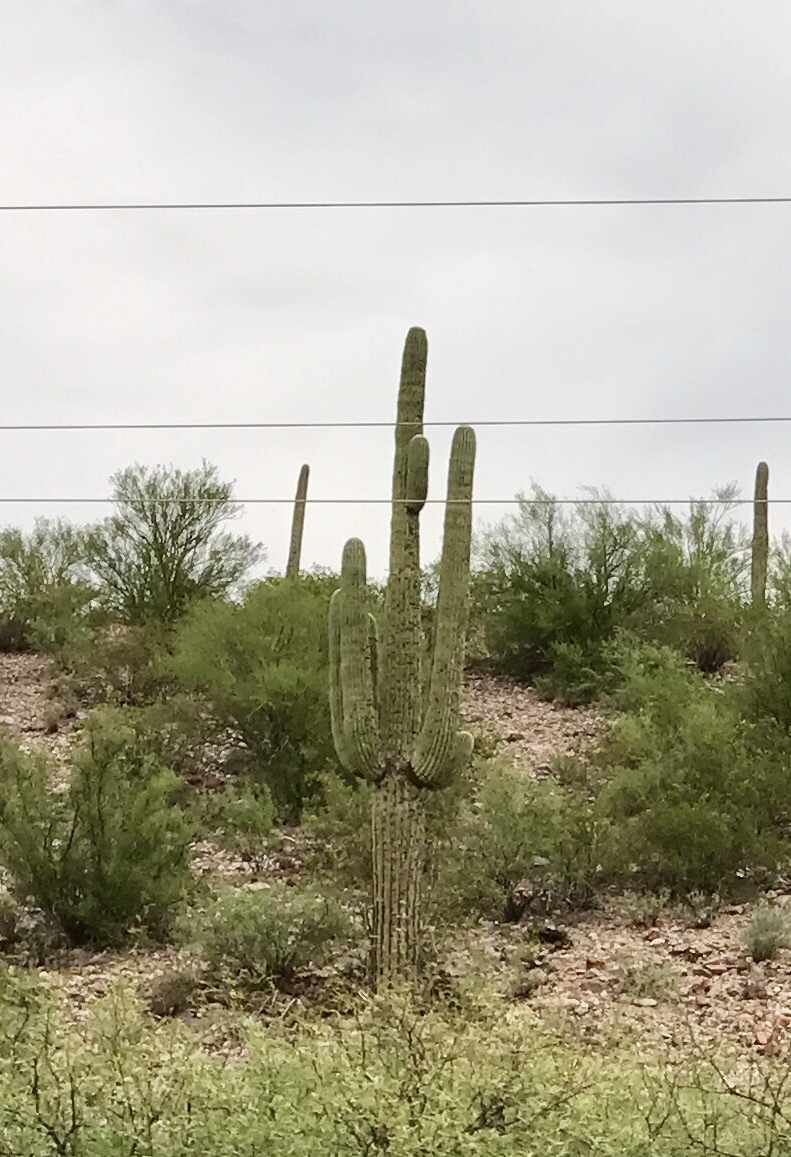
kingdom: Plantae
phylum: Tracheophyta
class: Magnoliopsida
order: Caryophyllales
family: Cactaceae
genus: Carnegiea
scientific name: Carnegiea gigantea
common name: Saguaro
